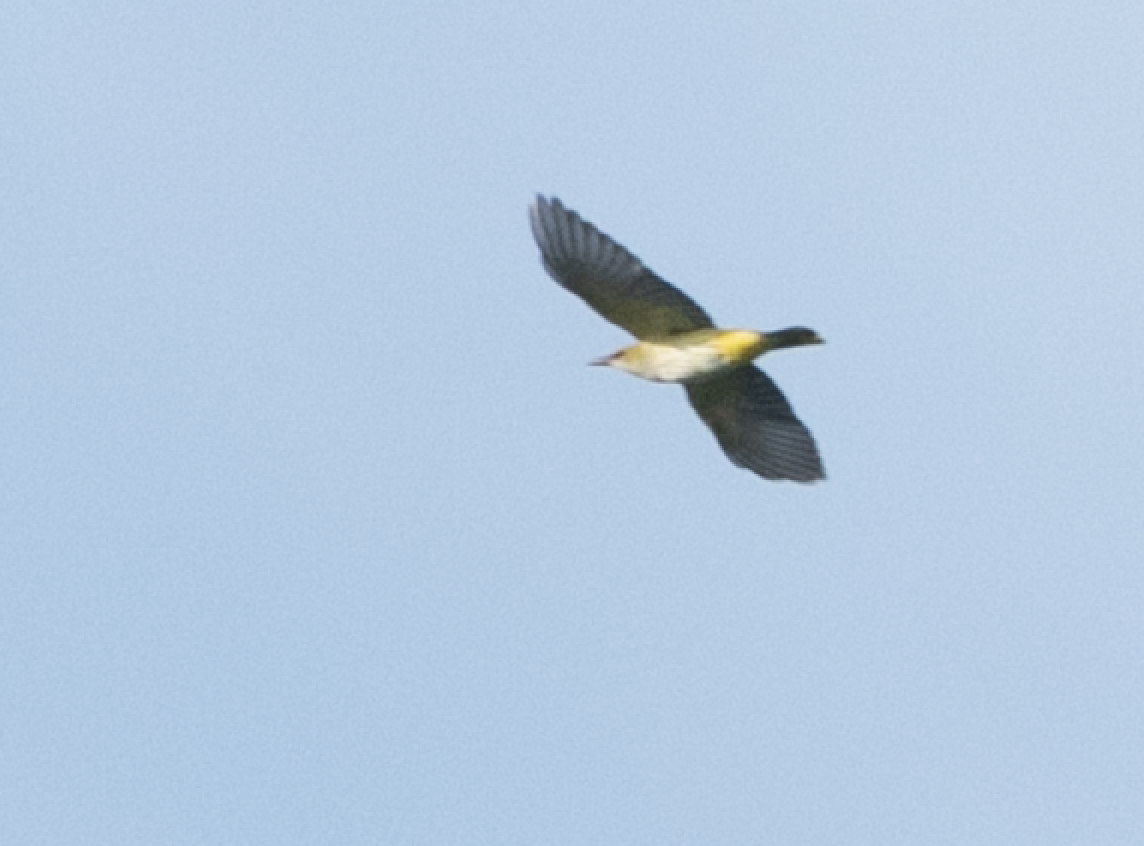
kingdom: Animalia
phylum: Chordata
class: Aves
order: Passeriformes
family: Oriolidae
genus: Oriolus
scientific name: Oriolus oriolus
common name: Eurasian golden oriole
